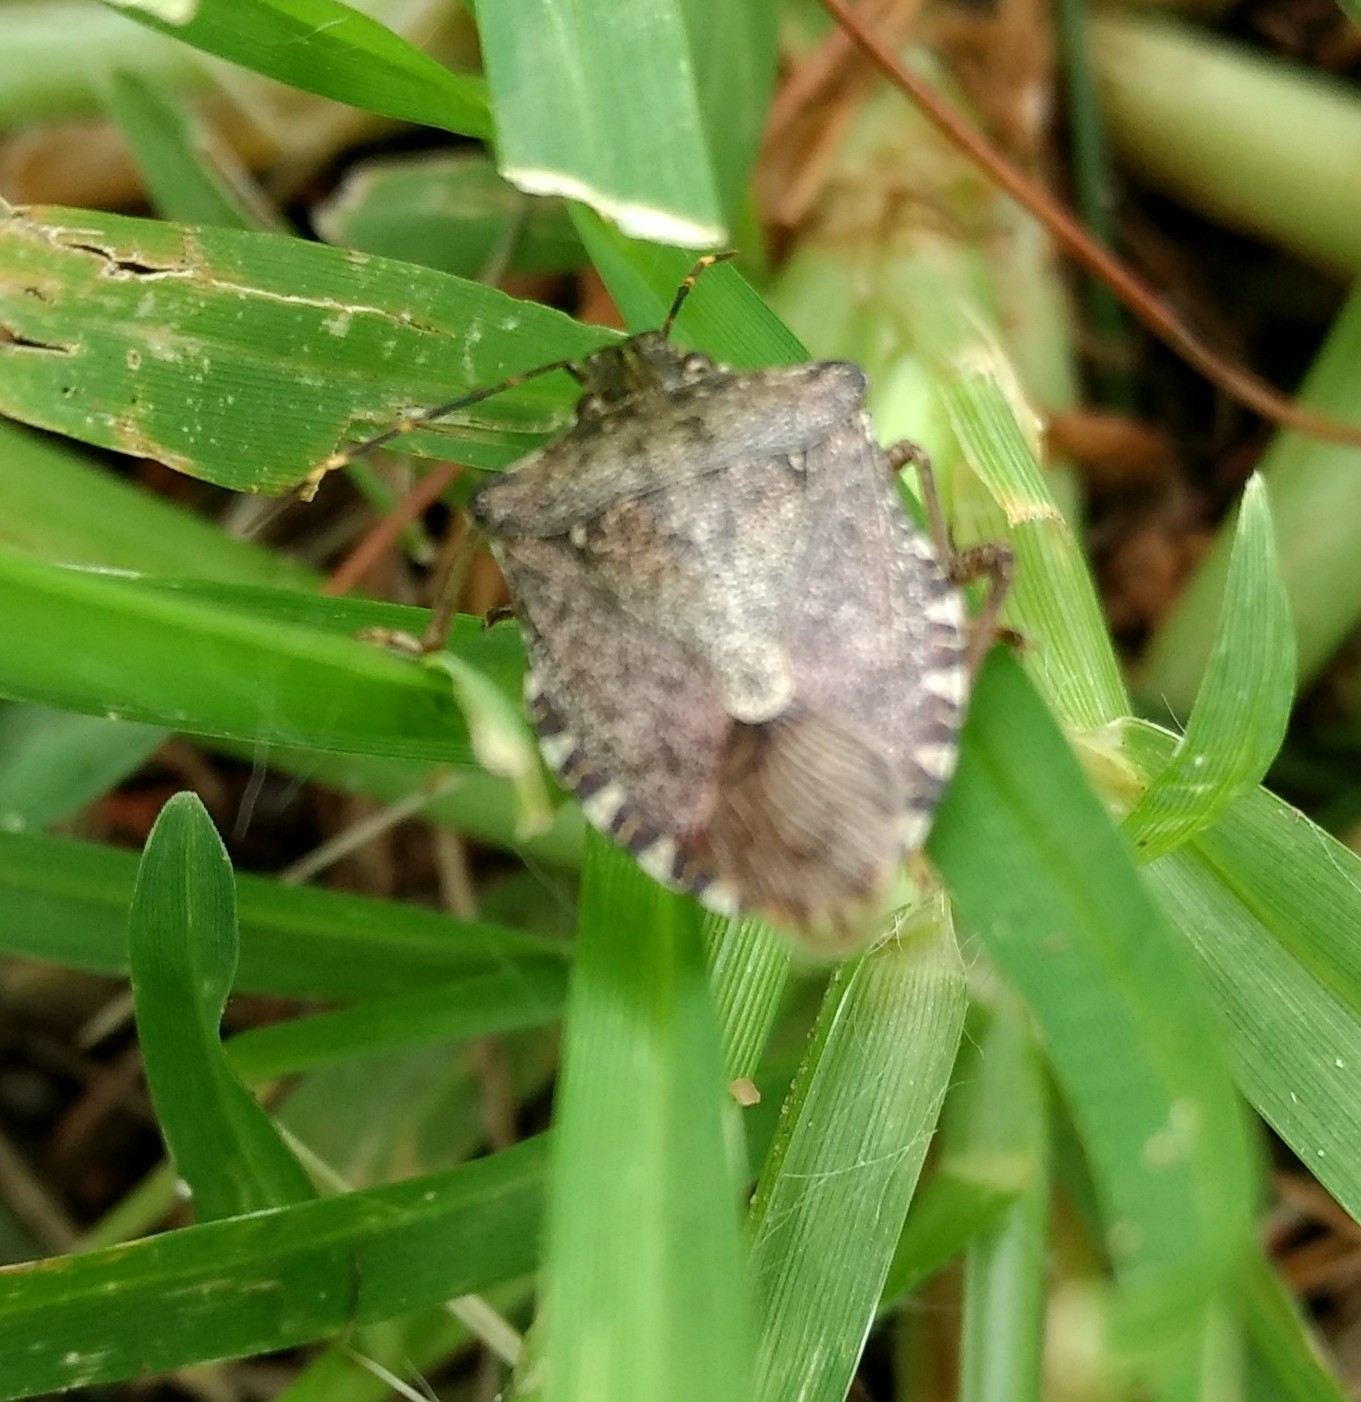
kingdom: Animalia
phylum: Arthropoda
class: Insecta
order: Hemiptera
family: Pentatomidae
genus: Halyomorpha
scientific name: Halyomorpha halys
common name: Brown marmorated stink bug
